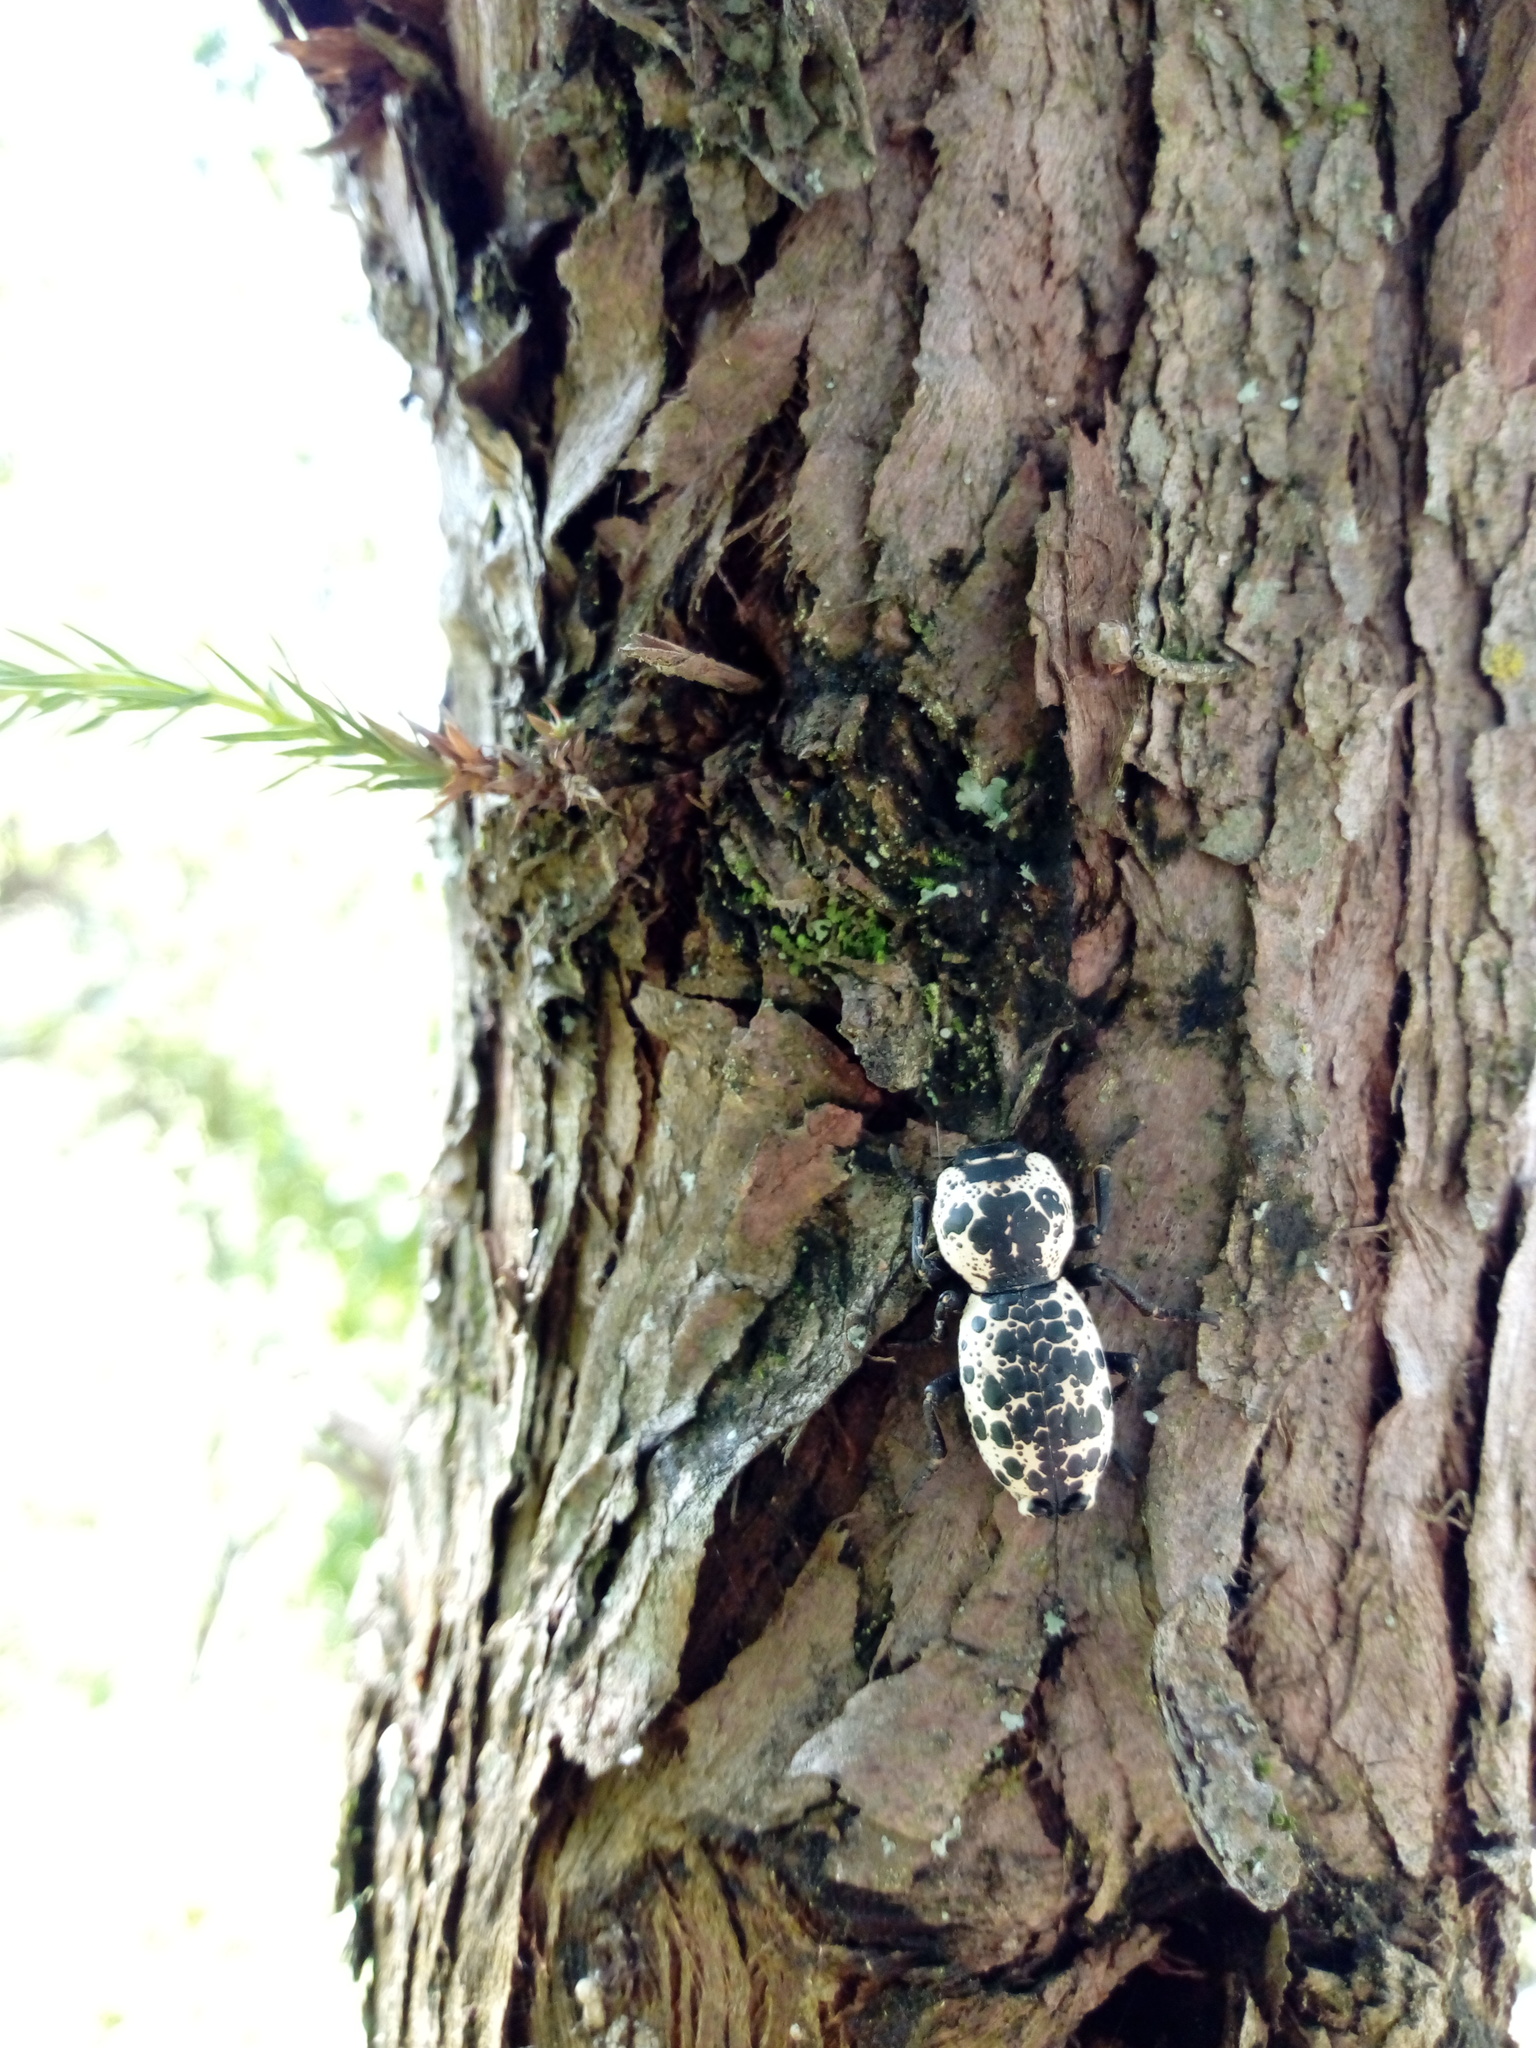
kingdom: Animalia
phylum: Arthropoda
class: Insecta
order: Coleoptera
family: Zopheridae
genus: Zopherus
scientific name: Zopherus nodulosus
